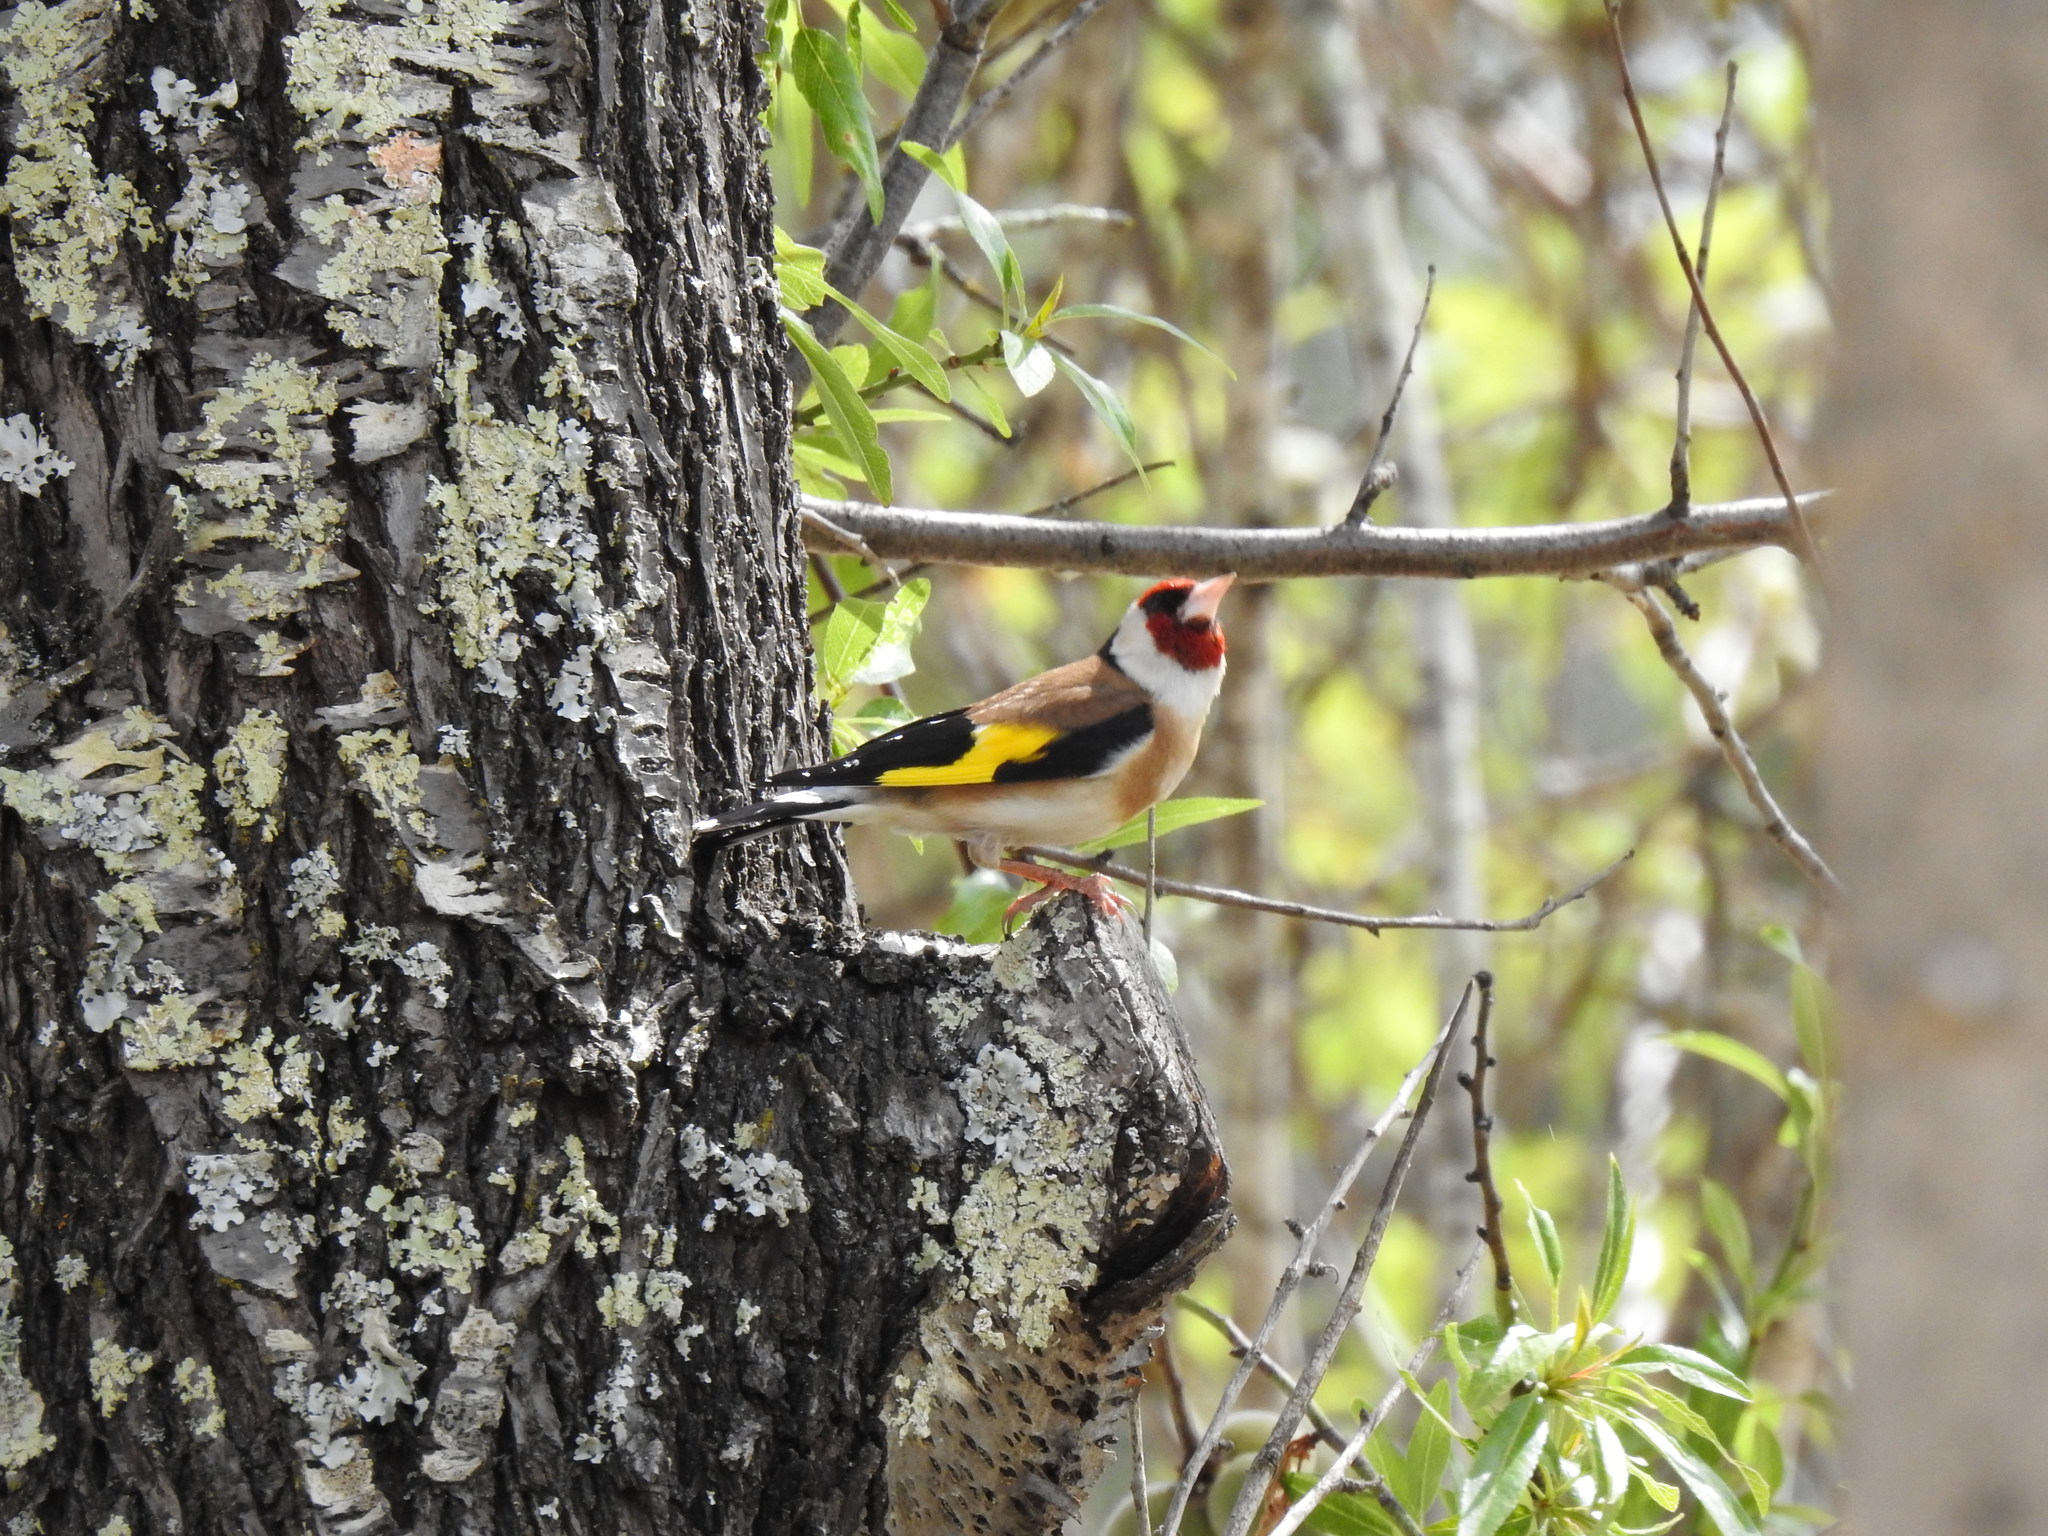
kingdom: Animalia
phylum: Chordata
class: Aves
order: Passeriformes
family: Fringillidae
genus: Carduelis
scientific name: Carduelis carduelis
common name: European goldfinch
